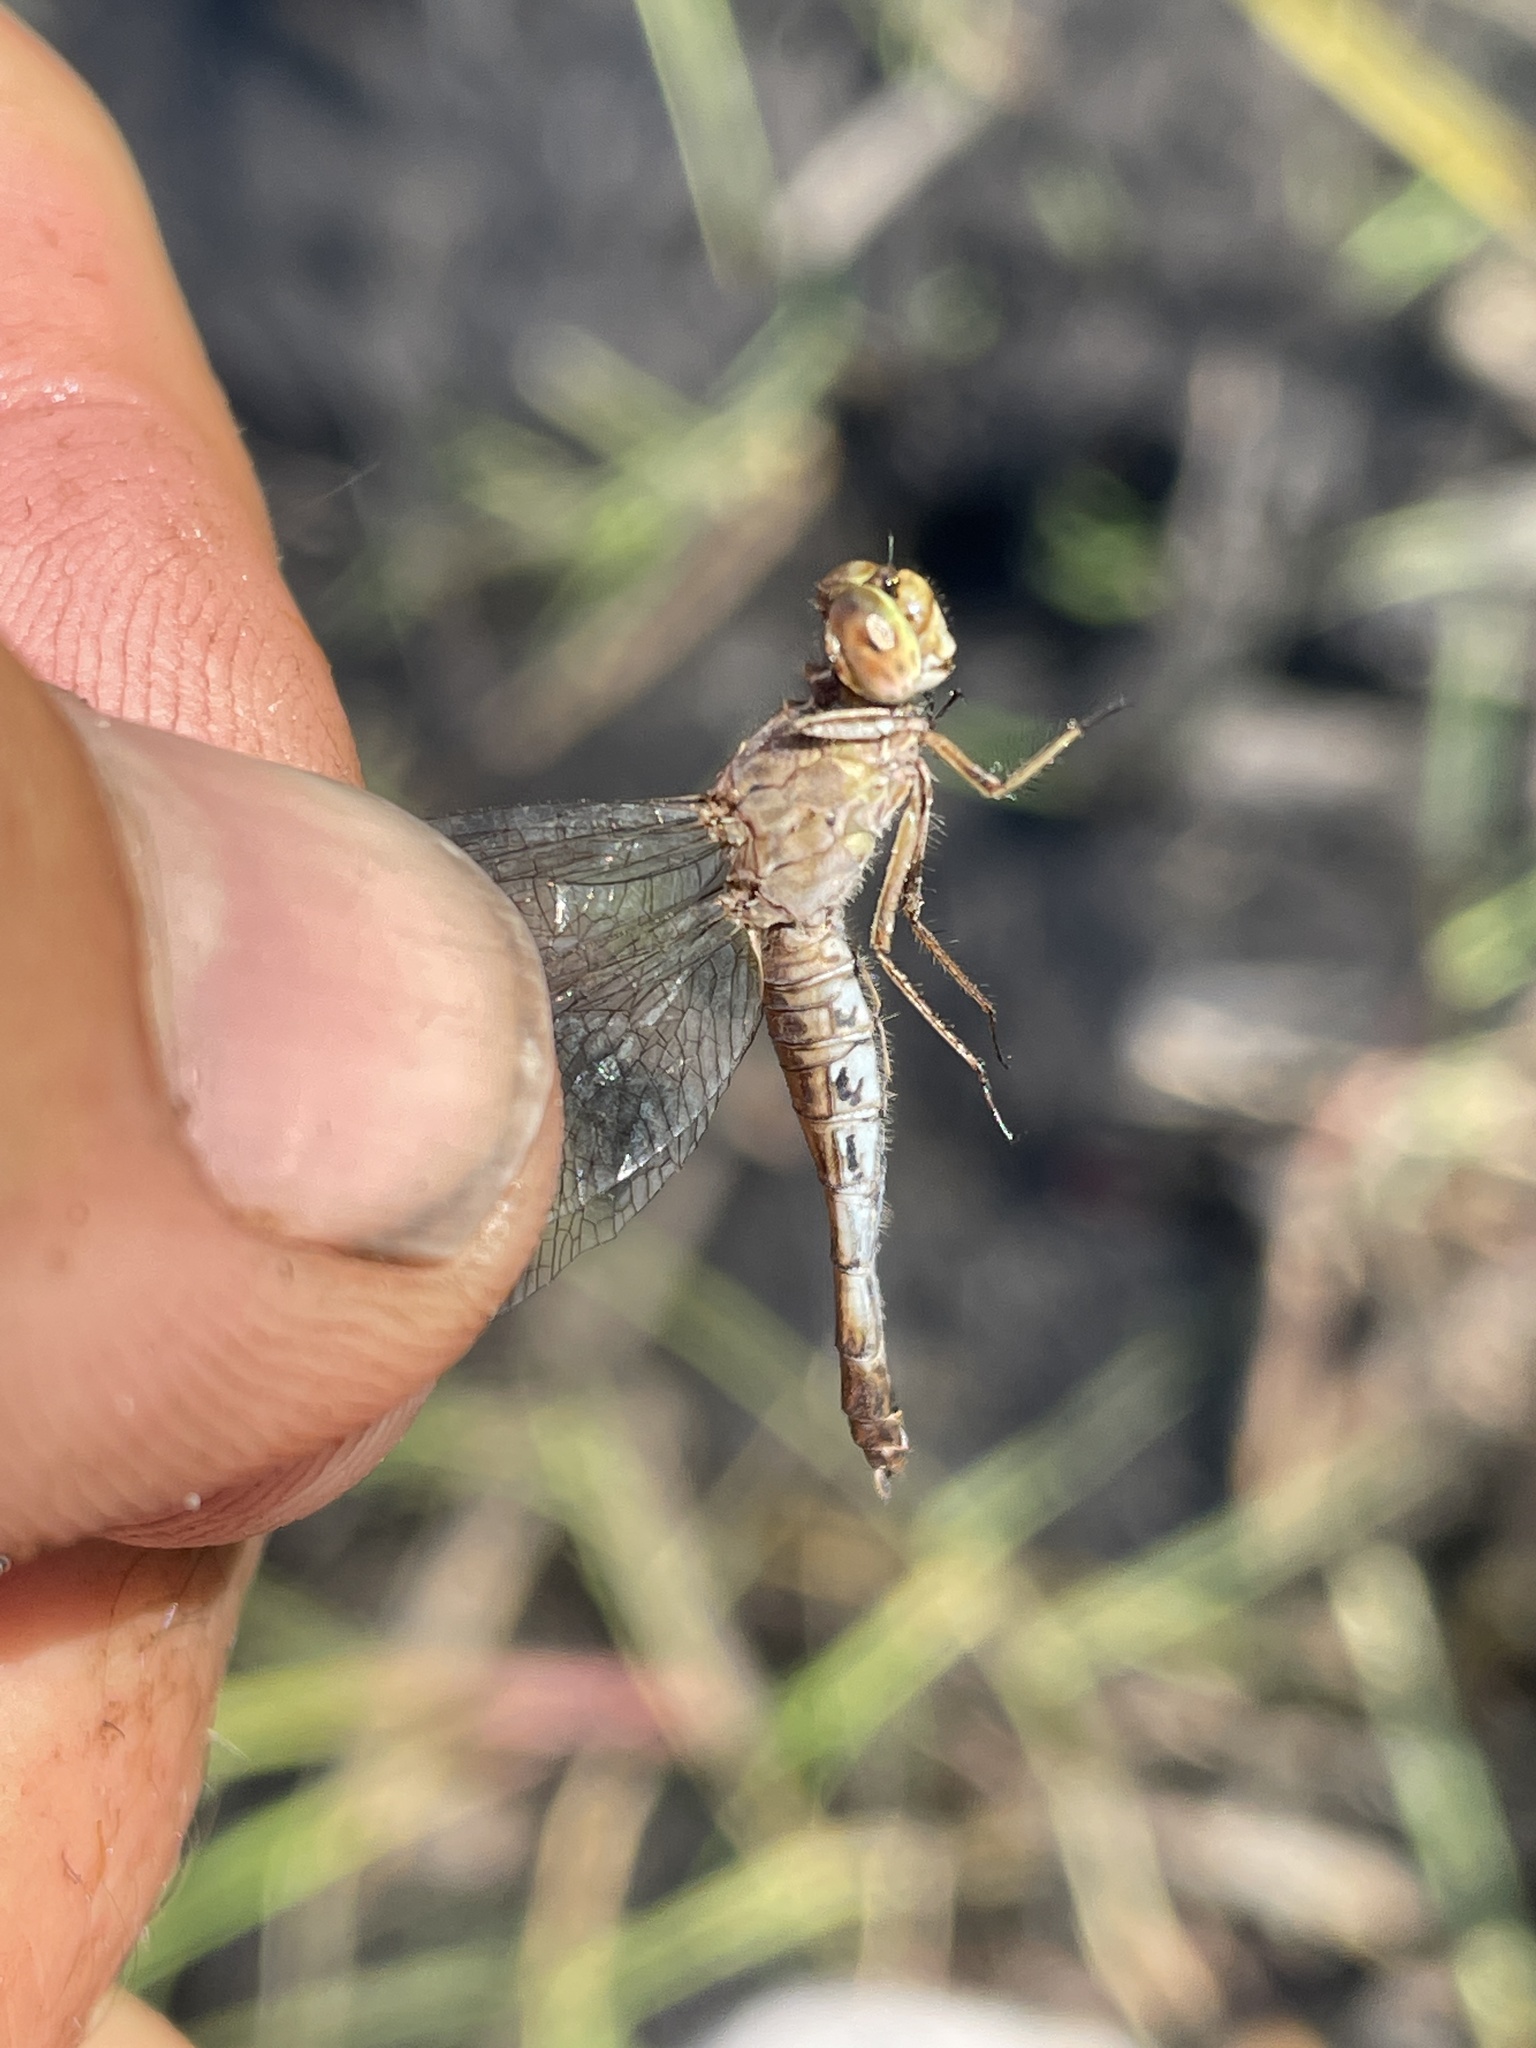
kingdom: Animalia
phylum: Arthropoda
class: Insecta
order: Odonata
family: Libellulidae
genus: Acisoma
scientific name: Acisoma inflatum
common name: Stout pintail
